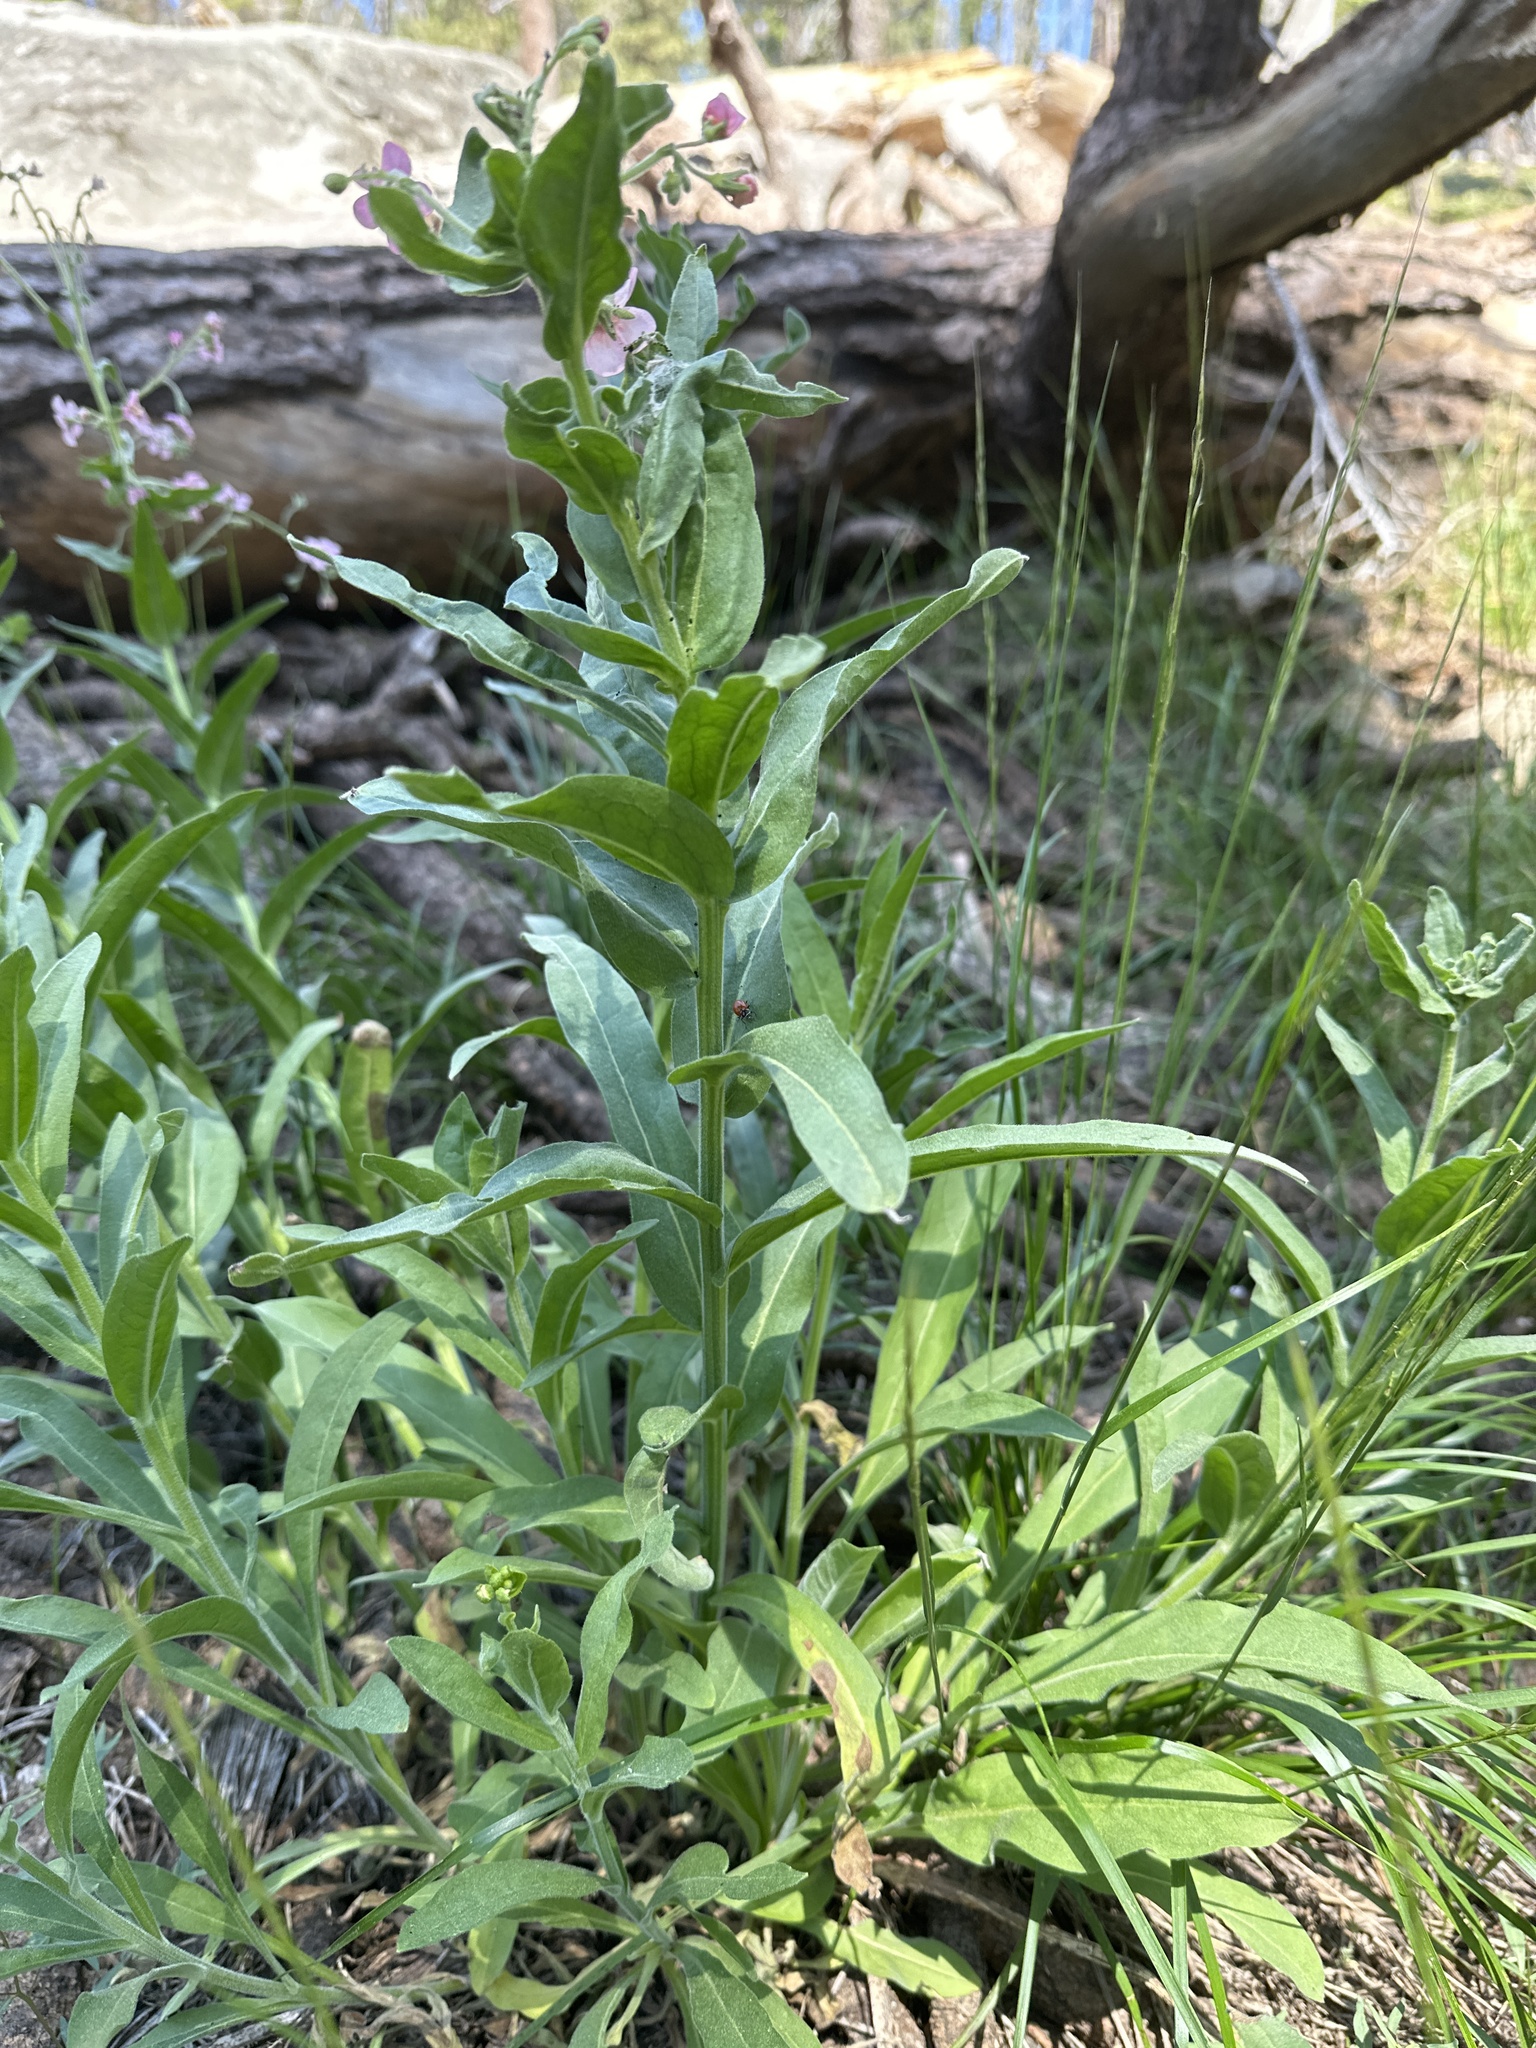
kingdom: Plantae
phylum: Tracheophyta
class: Magnoliopsida
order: Boraginales
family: Boraginaceae
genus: Hackelia
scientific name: Hackelia mundula
